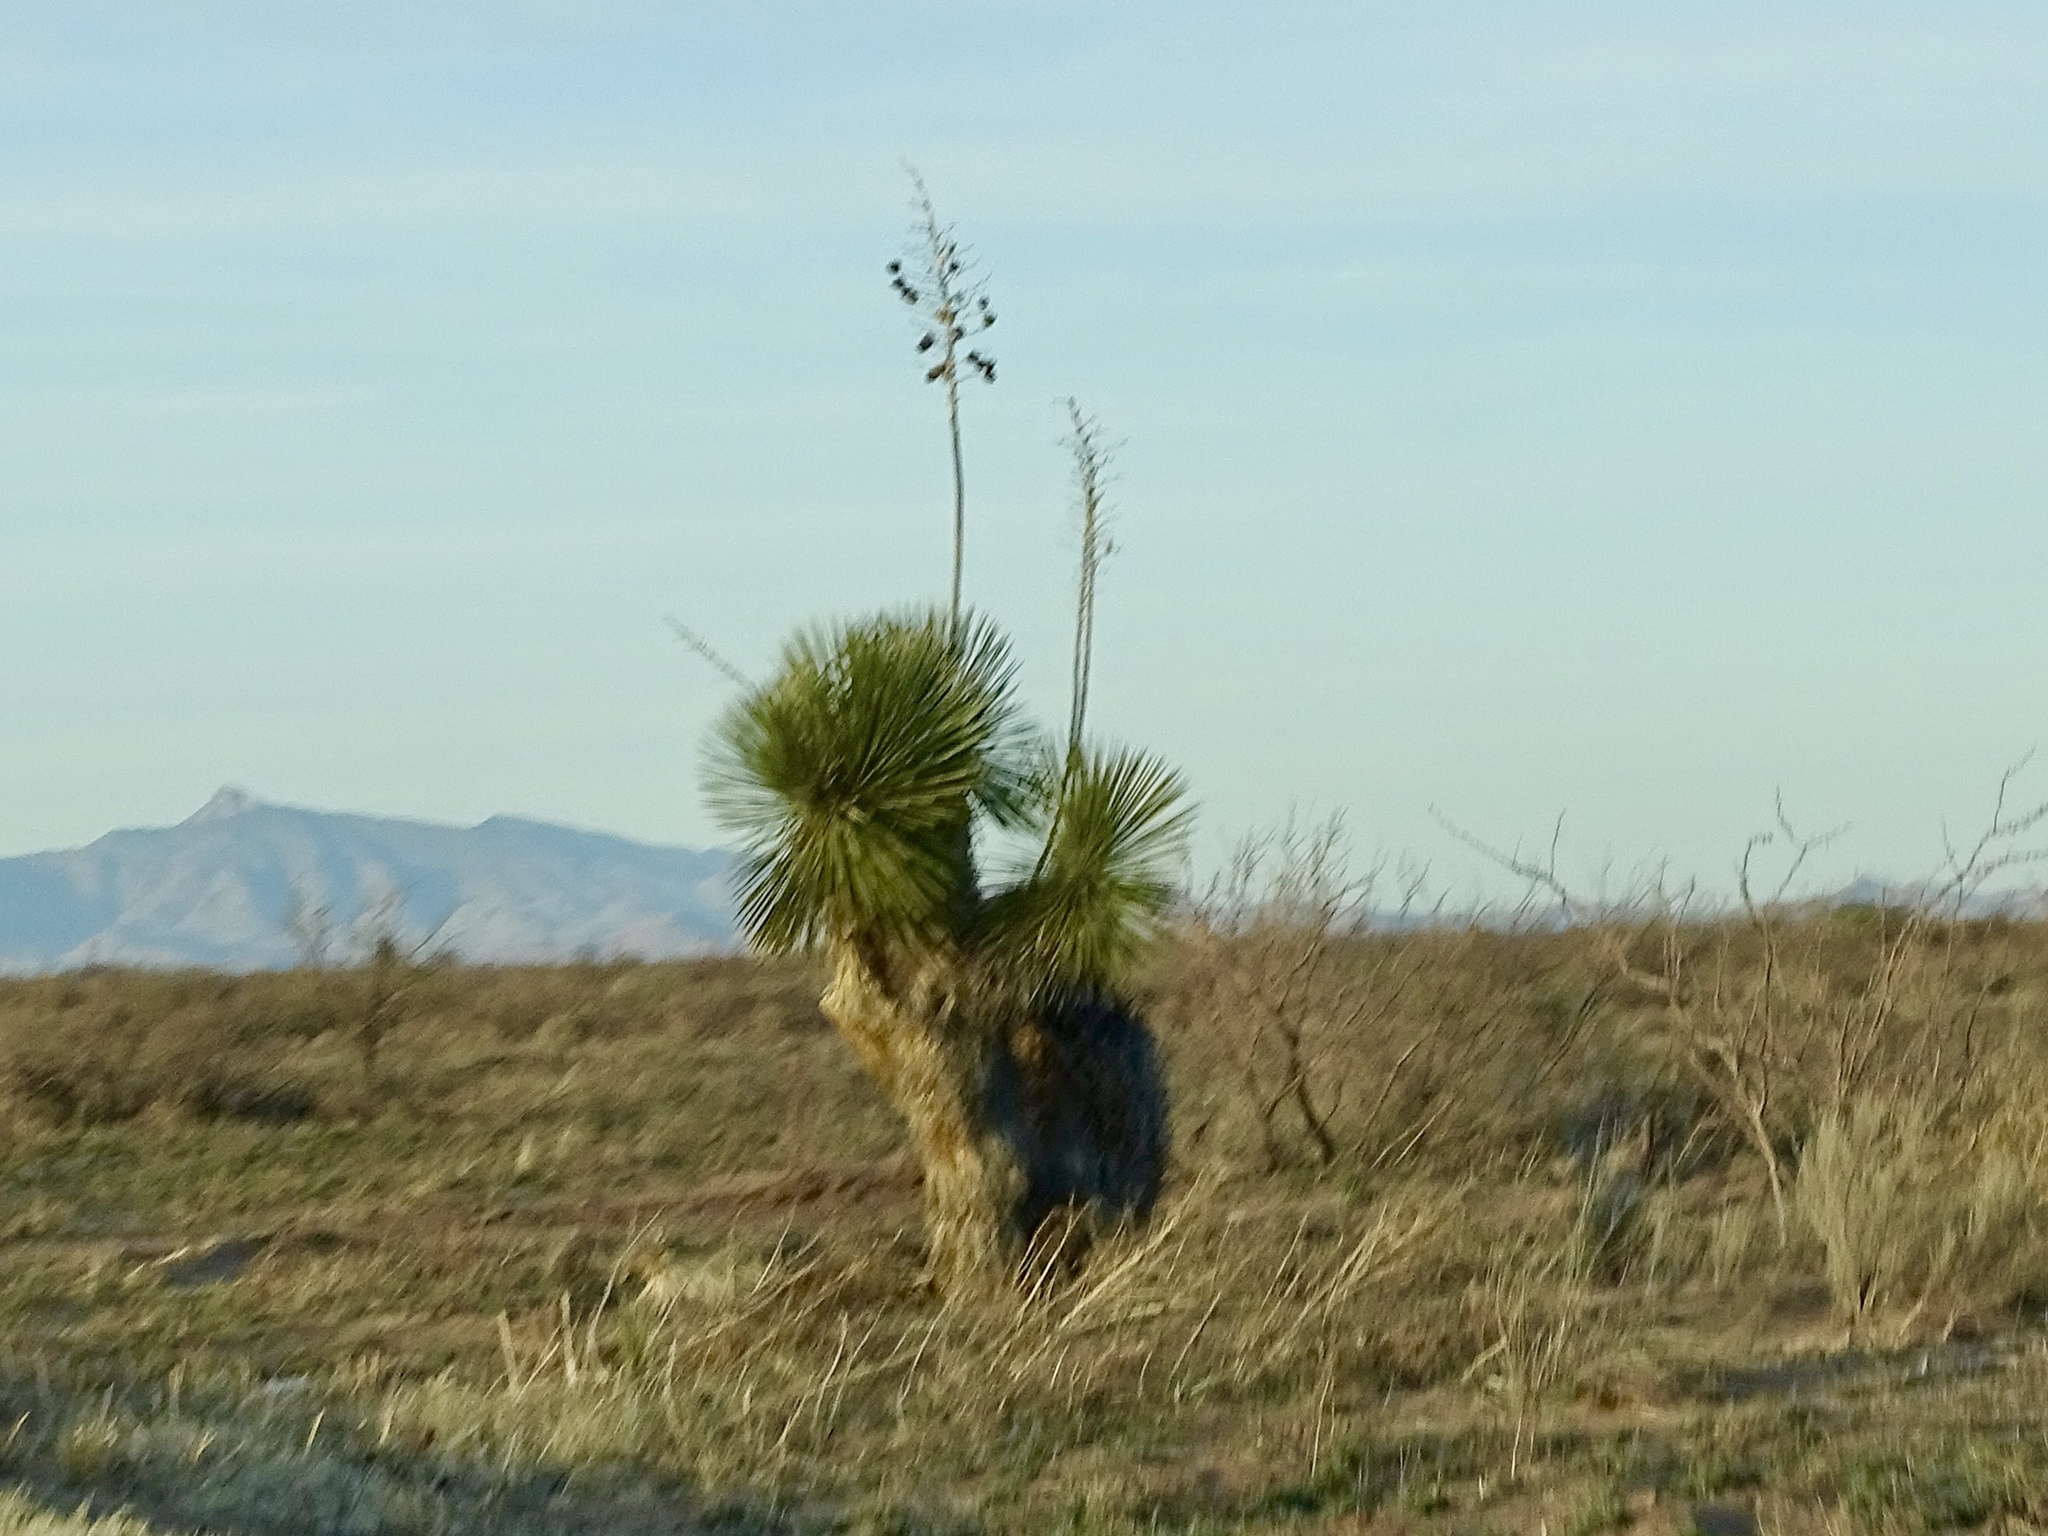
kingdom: Plantae
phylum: Tracheophyta
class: Liliopsida
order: Asparagales
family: Asparagaceae
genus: Yucca
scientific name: Yucca elata
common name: Palmella
